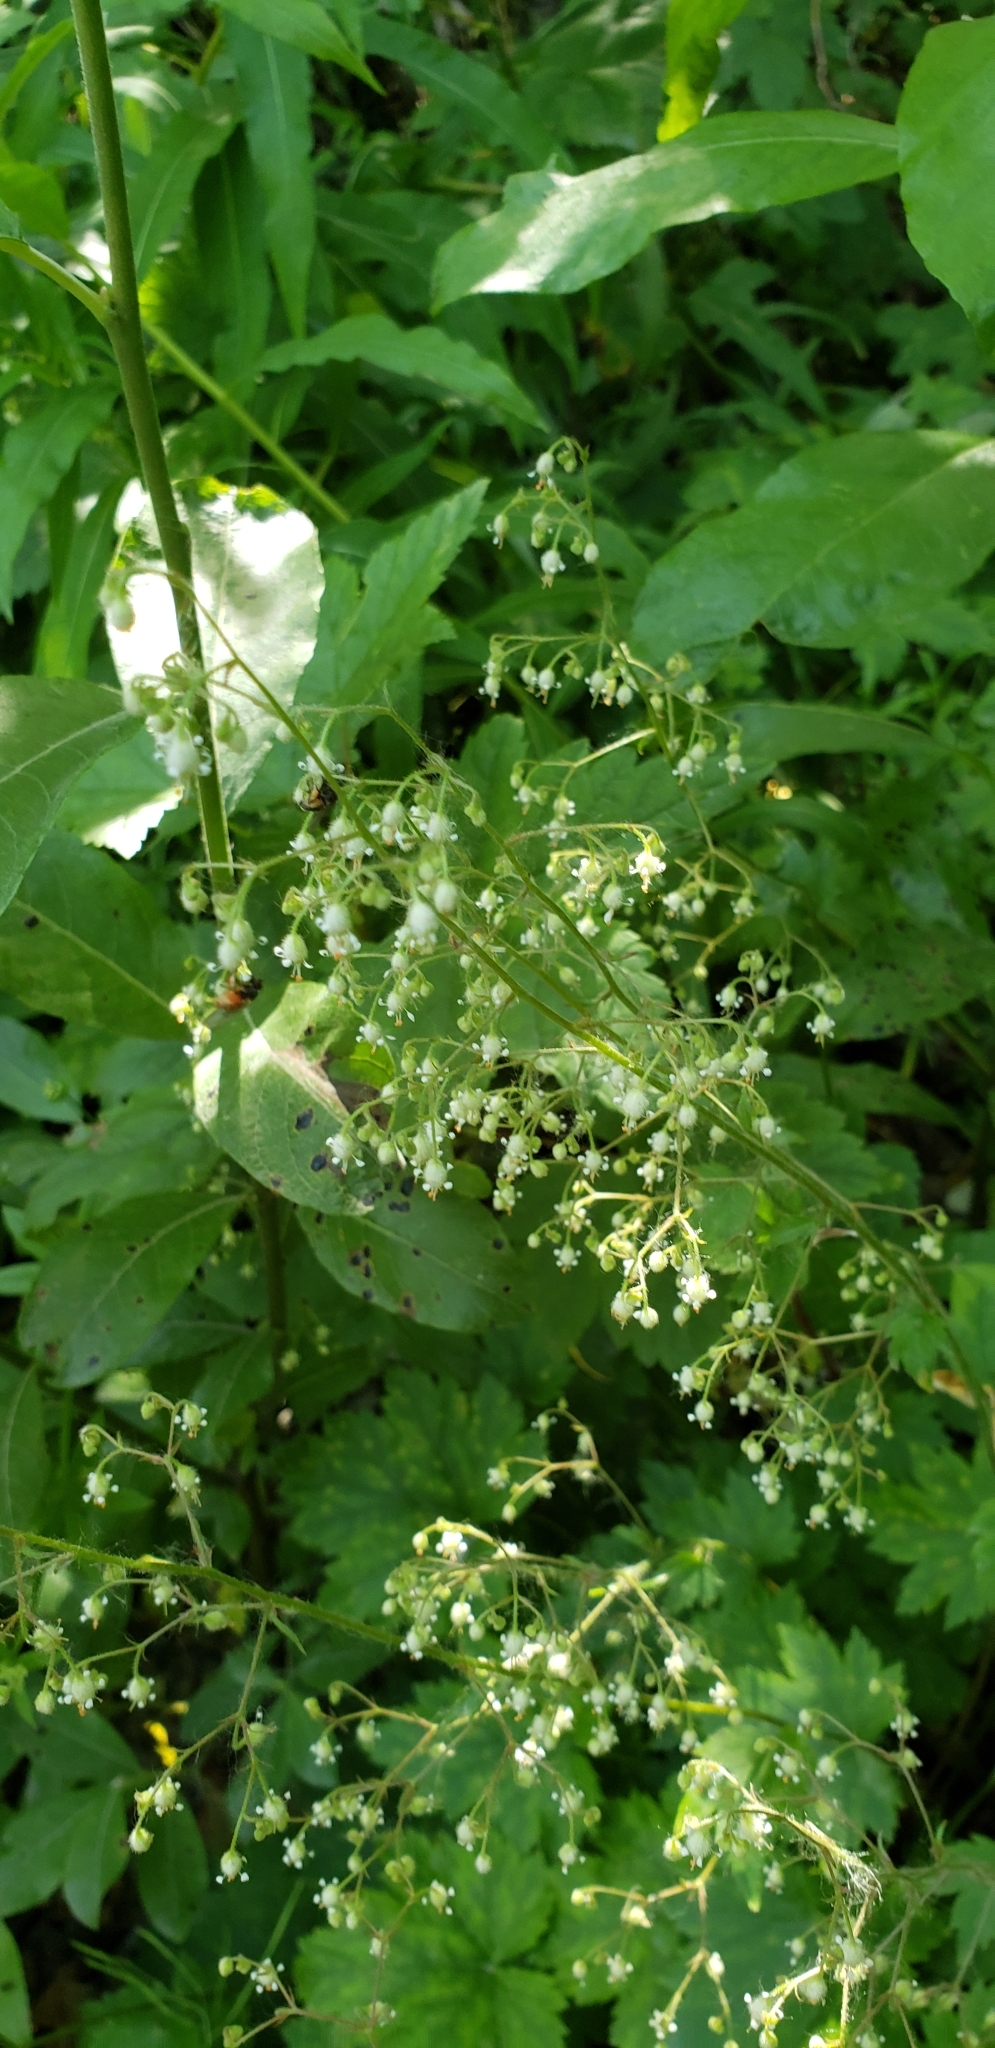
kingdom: Plantae
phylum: Tracheophyta
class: Magnoliopsida
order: Saxifragales
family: Saxifragaceae
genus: Heuchera
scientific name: Heuchera glabra
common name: Alpine alumroot
